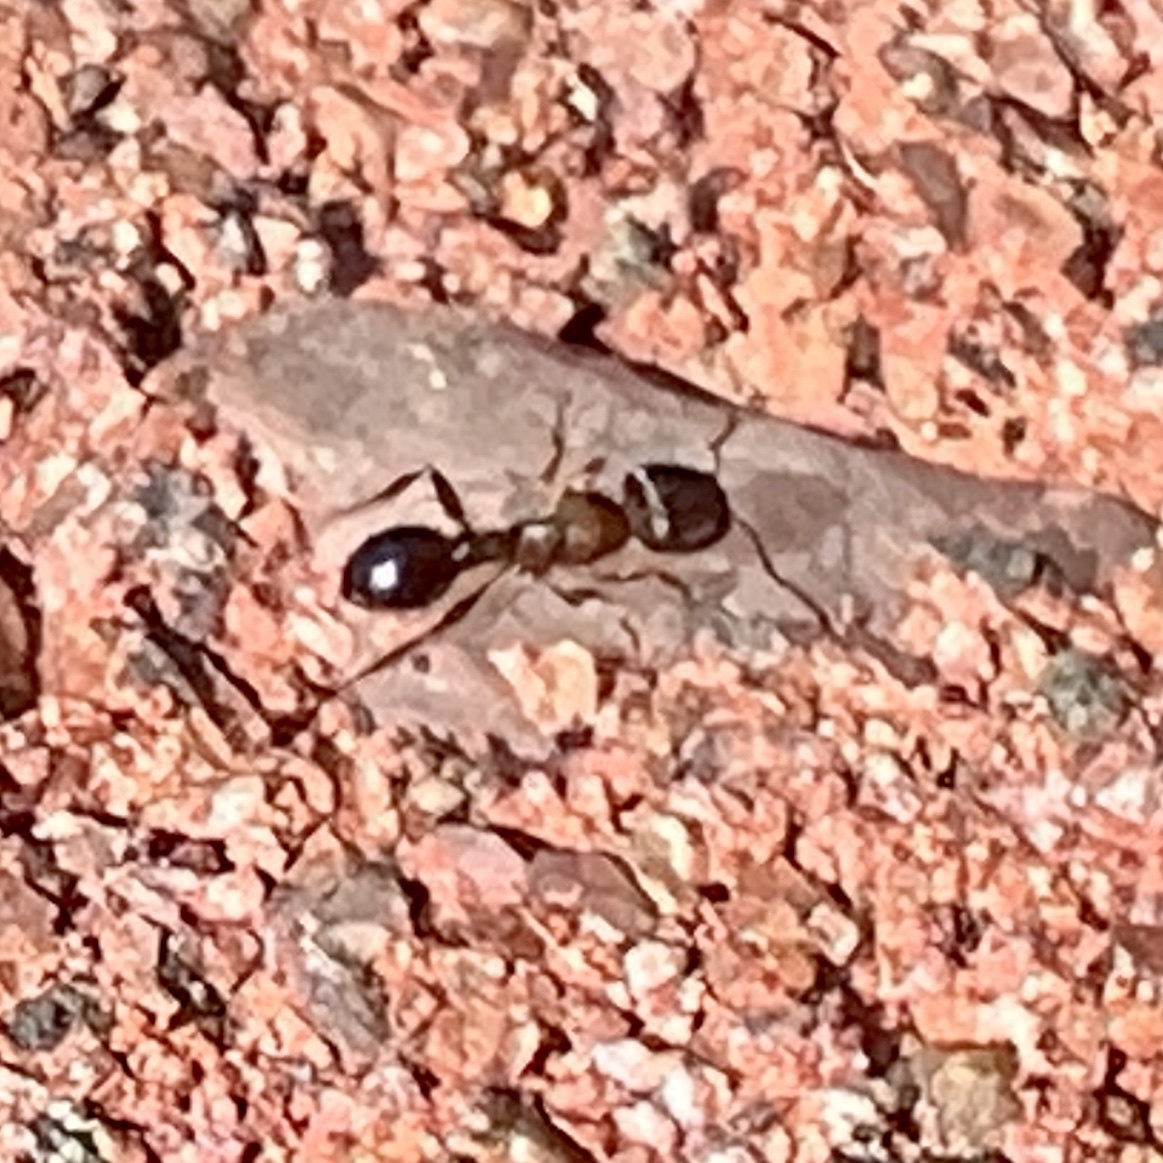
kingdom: Animalia
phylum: Arthropoda
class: Insecta
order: Hymenoptera
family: Formicidae
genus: Tetramorium
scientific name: Tetramorium immigrans
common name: Pavement ant
